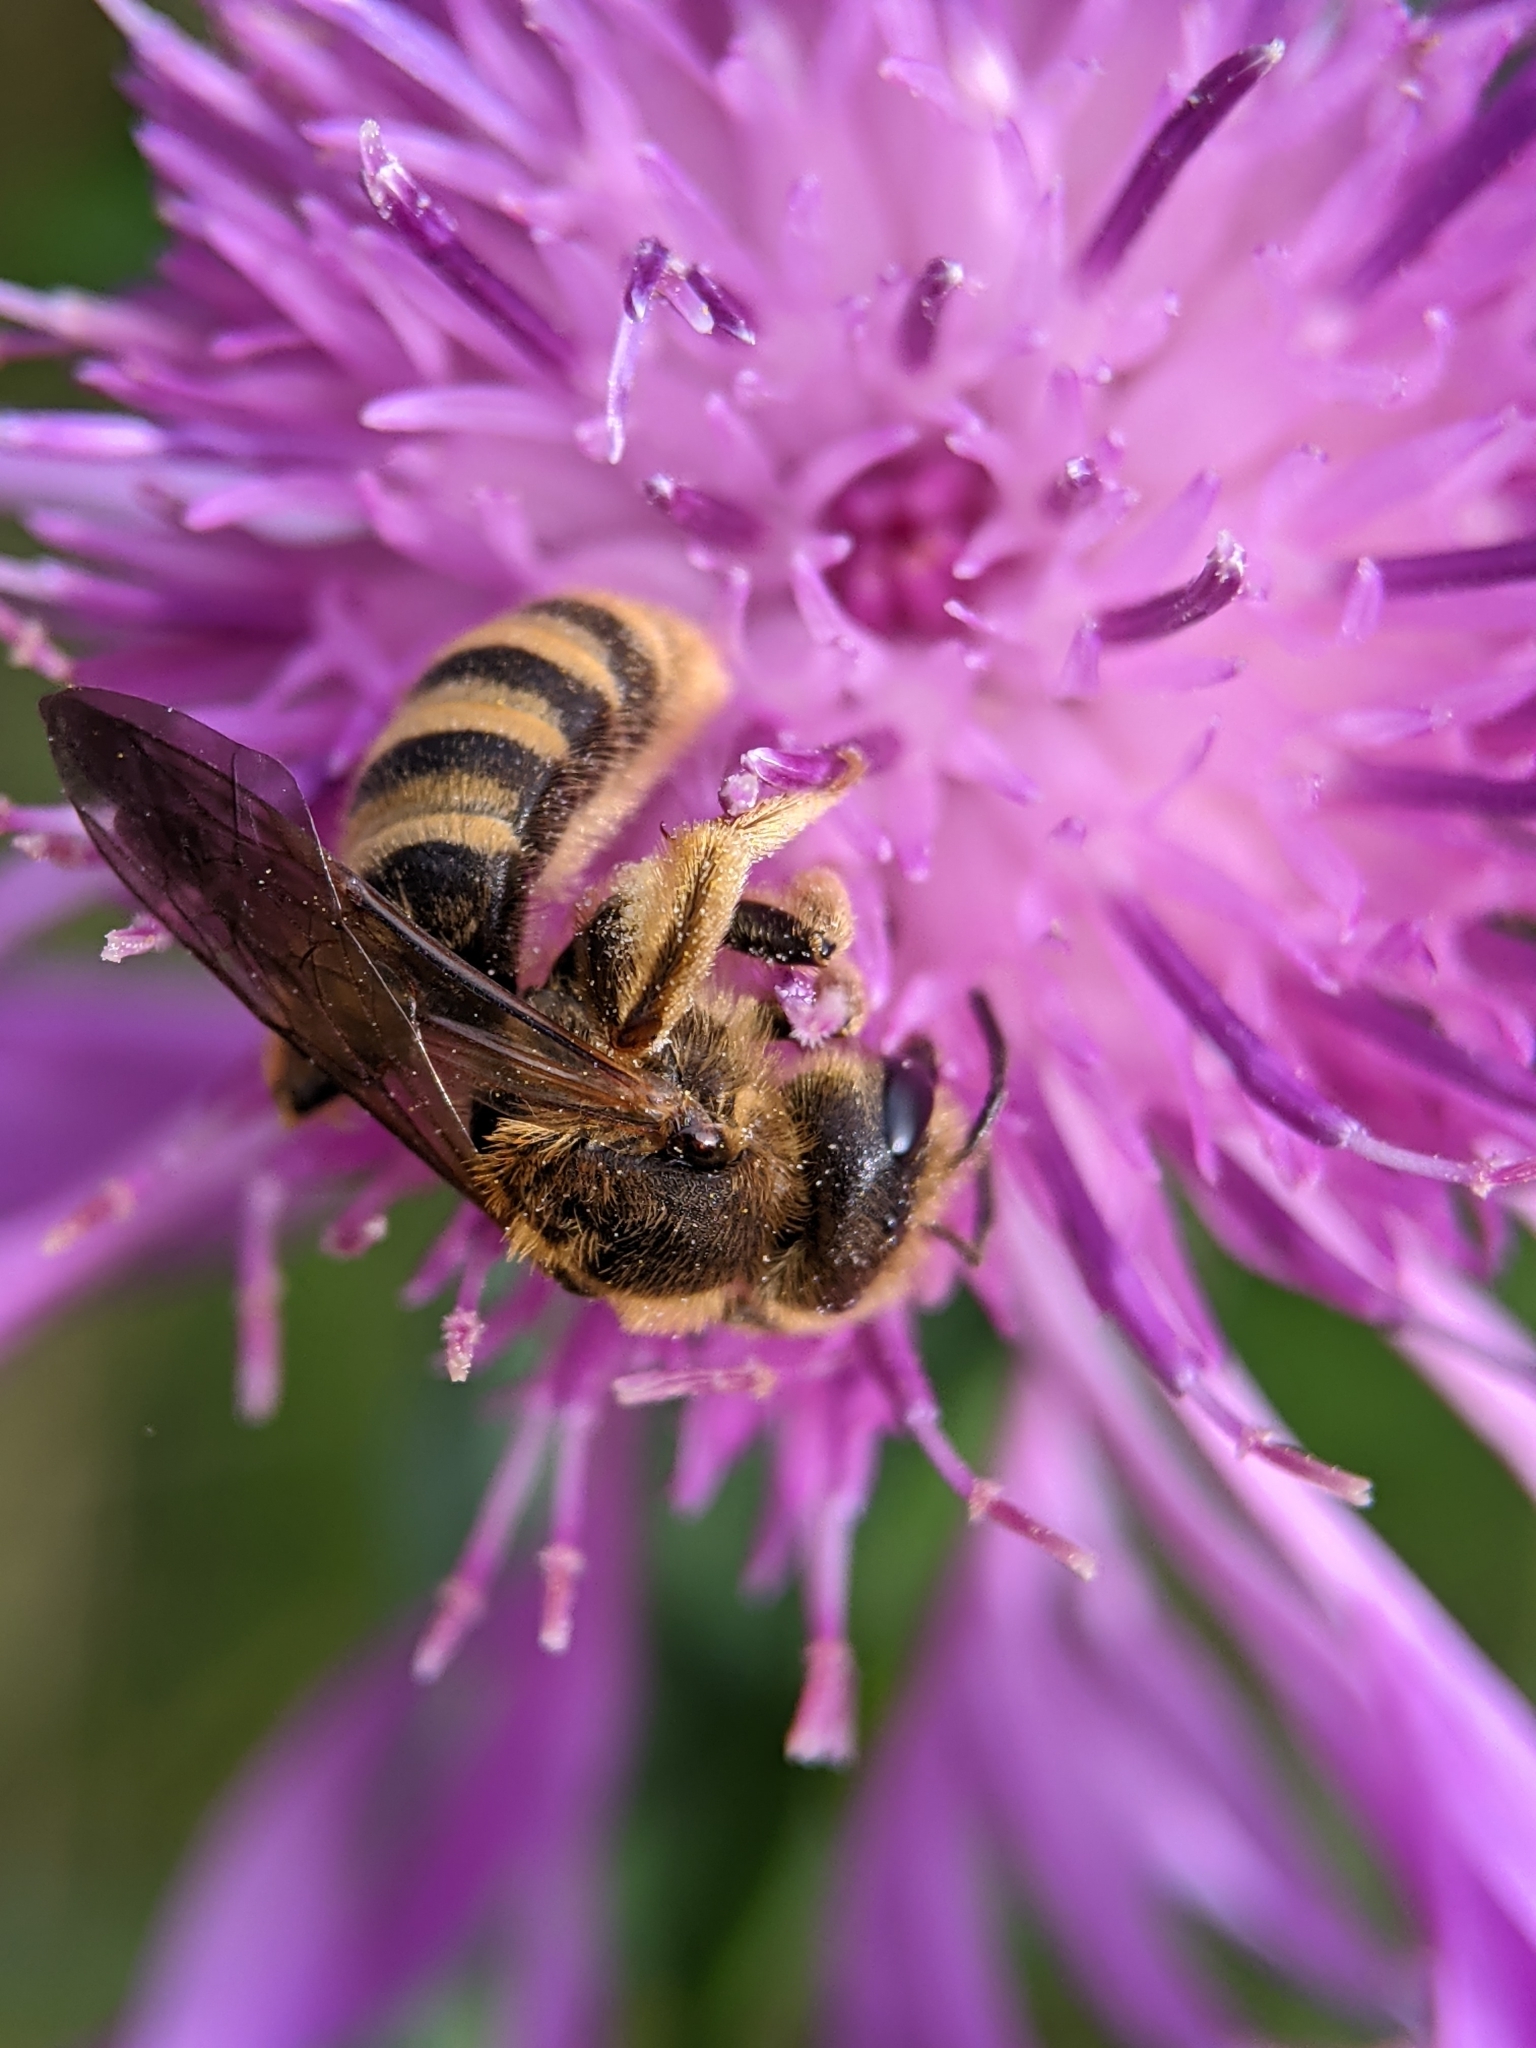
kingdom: Animalia
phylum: Arthropoda
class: Insecta
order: Hymenoptera
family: Halictidae
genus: Halictus
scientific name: Halictus scabiosae
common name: Great banded furrow bee
